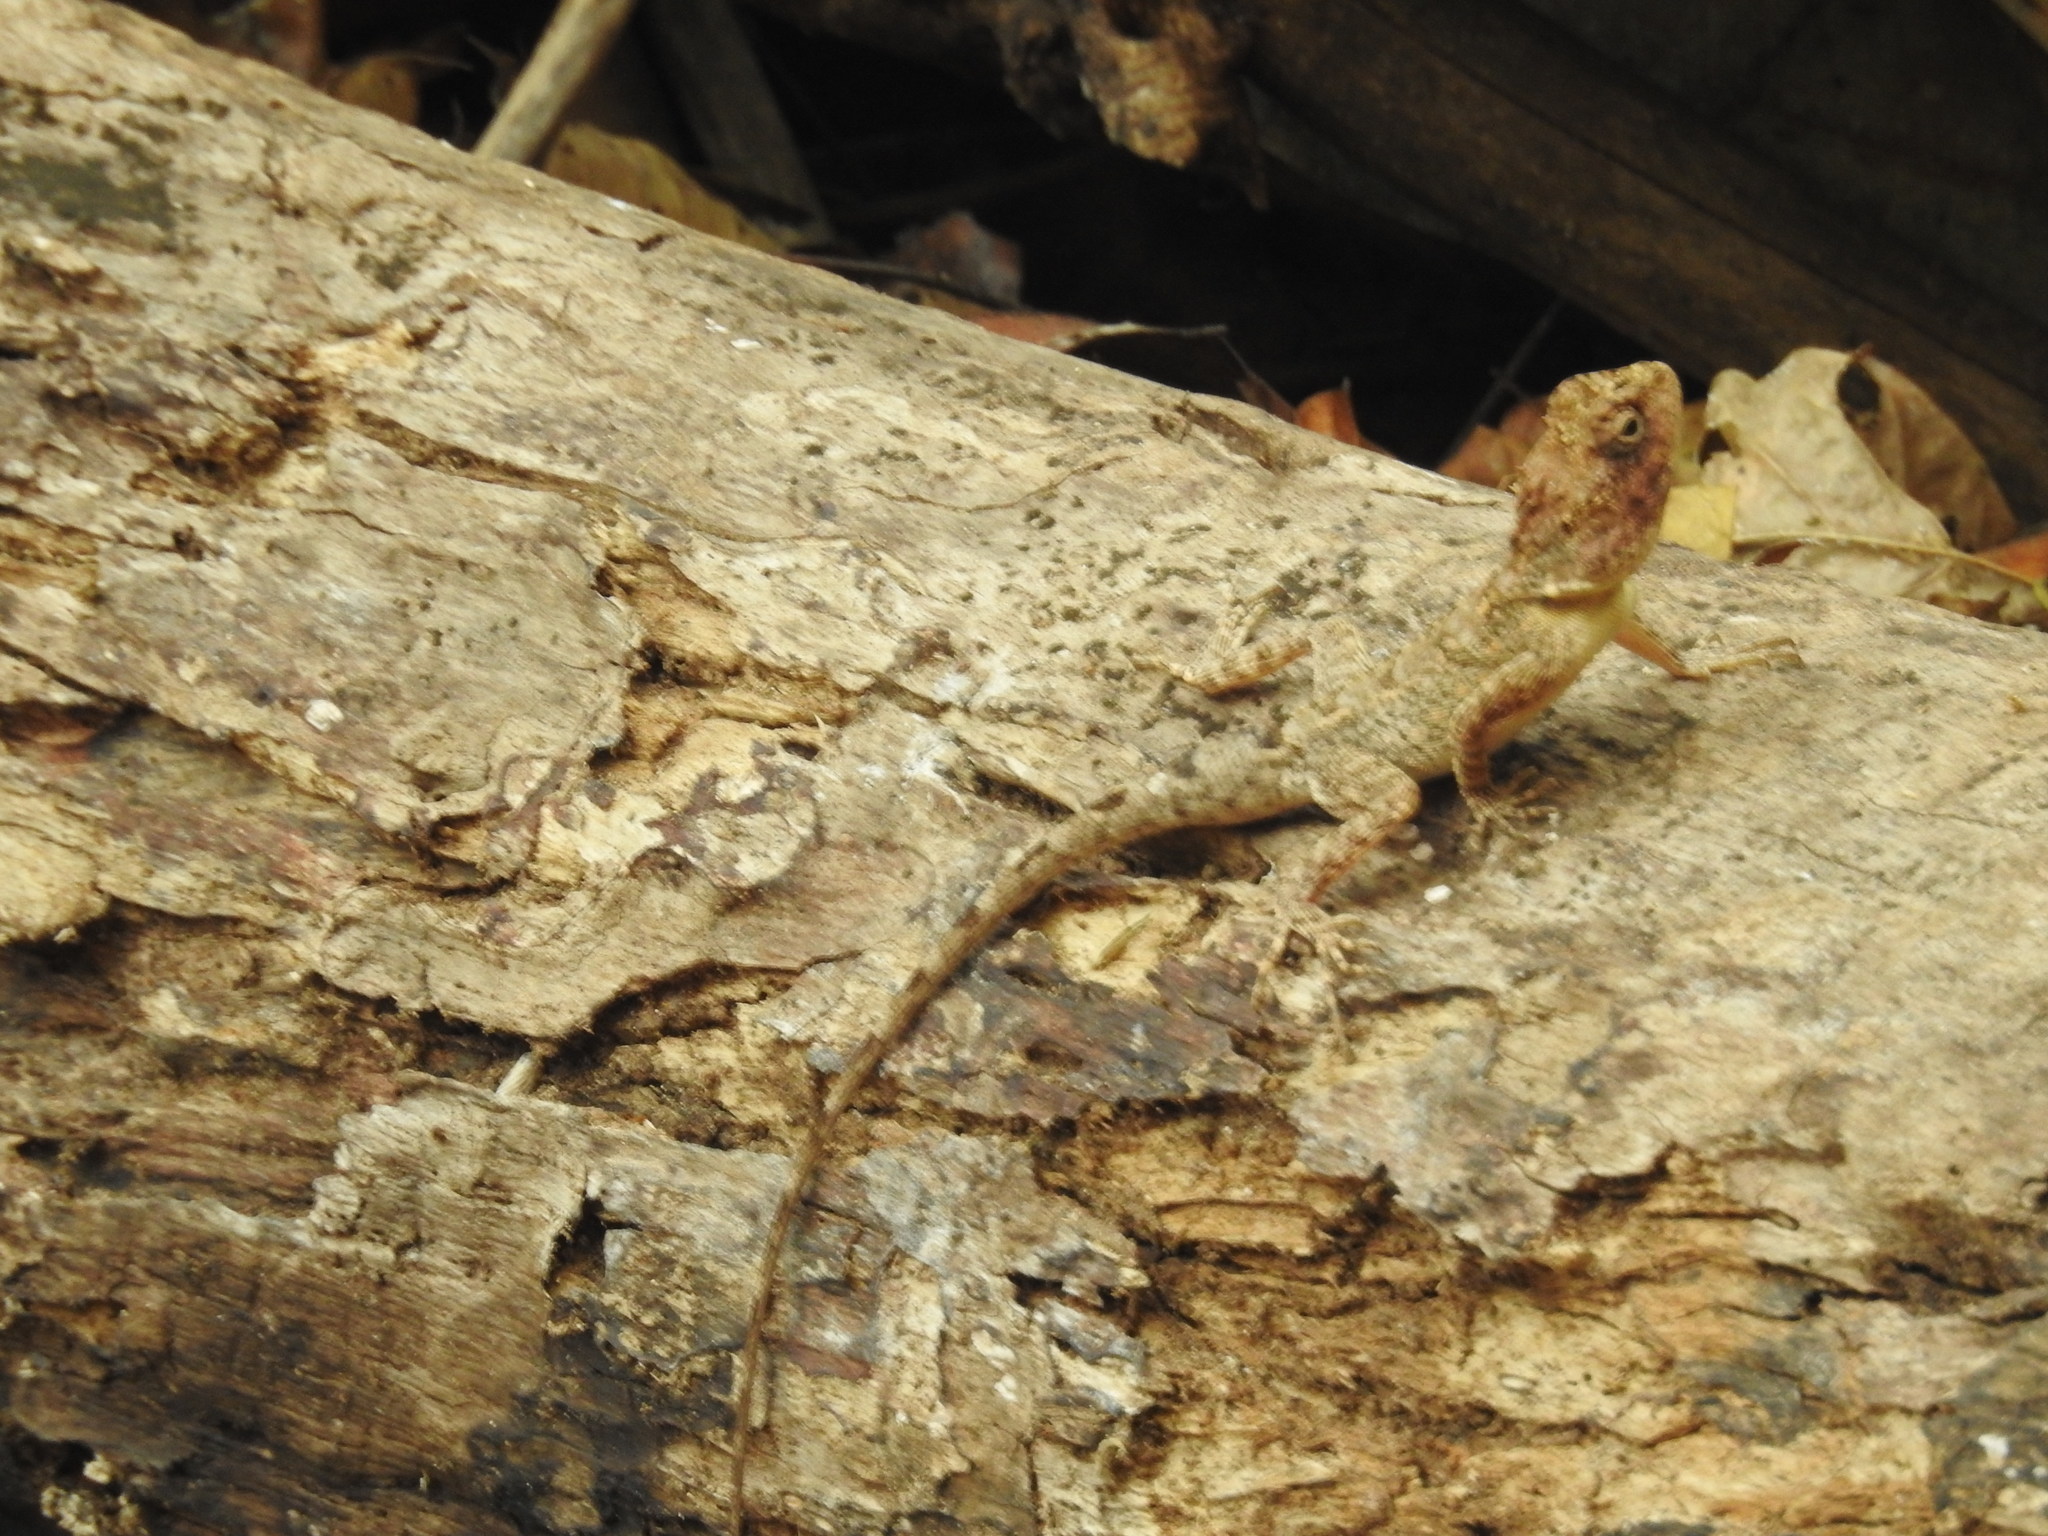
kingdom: Animalia
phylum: Chordata
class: Squamata
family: Agamidae
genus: Calotes
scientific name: Calotes versicolor
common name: Oriental garden lizard
